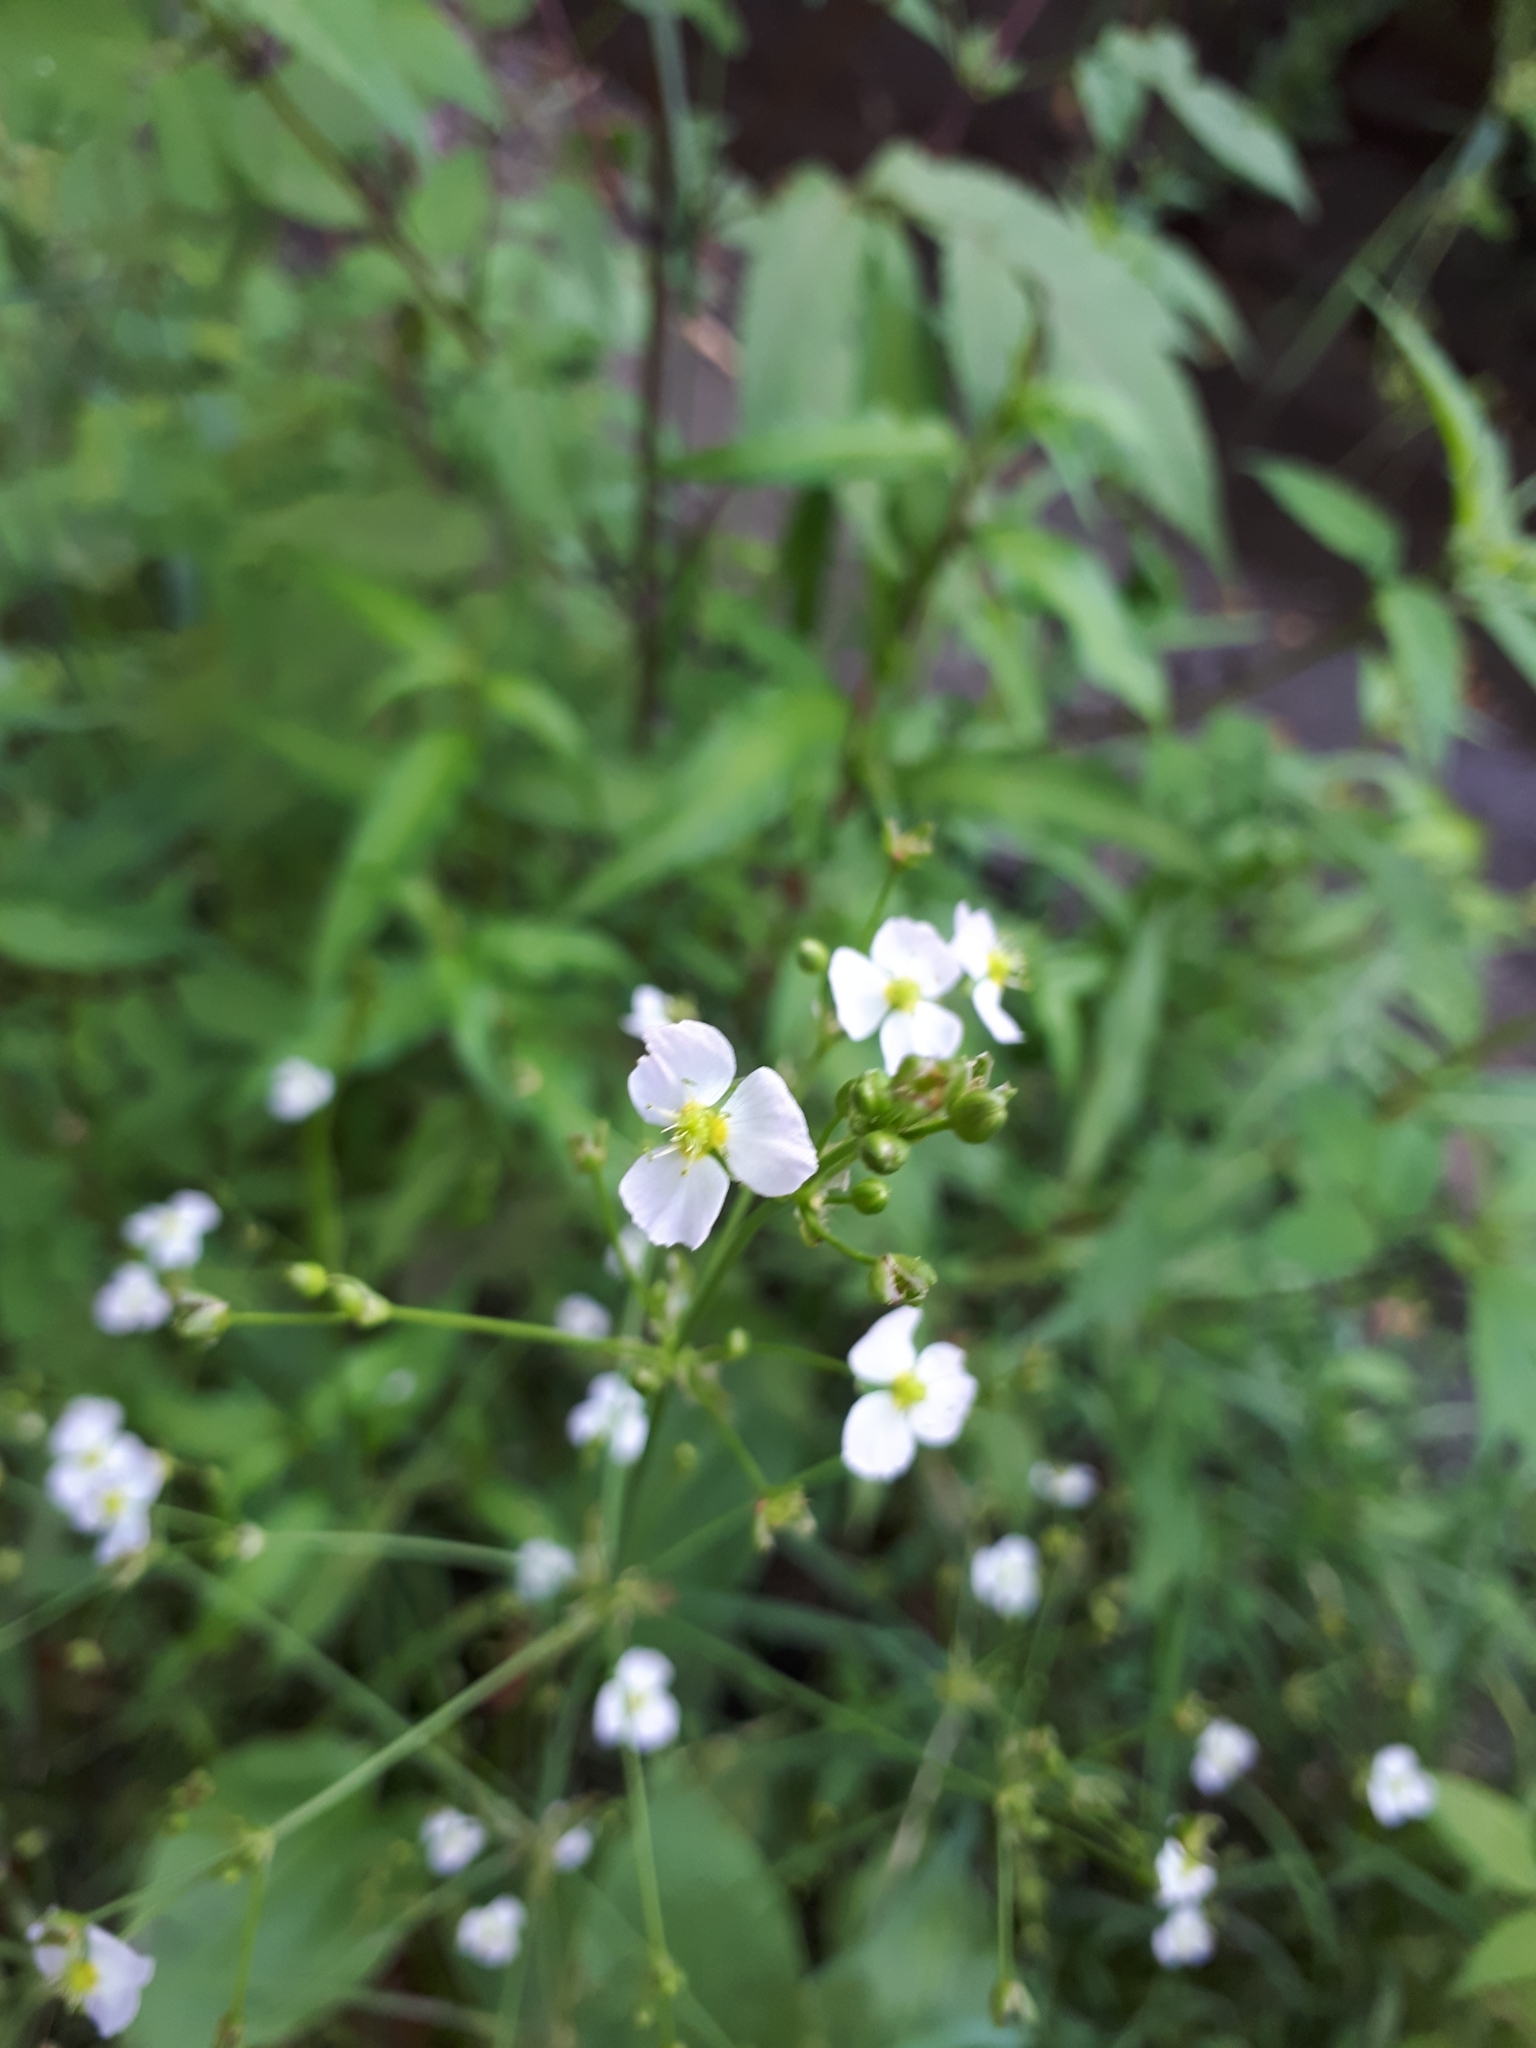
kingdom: Plantae
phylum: Tracheophyta
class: Liliopsida
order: Alismatales
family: Alismataceae
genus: Alisma
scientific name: Alisma plantago-aquatica
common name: Water-plantain
